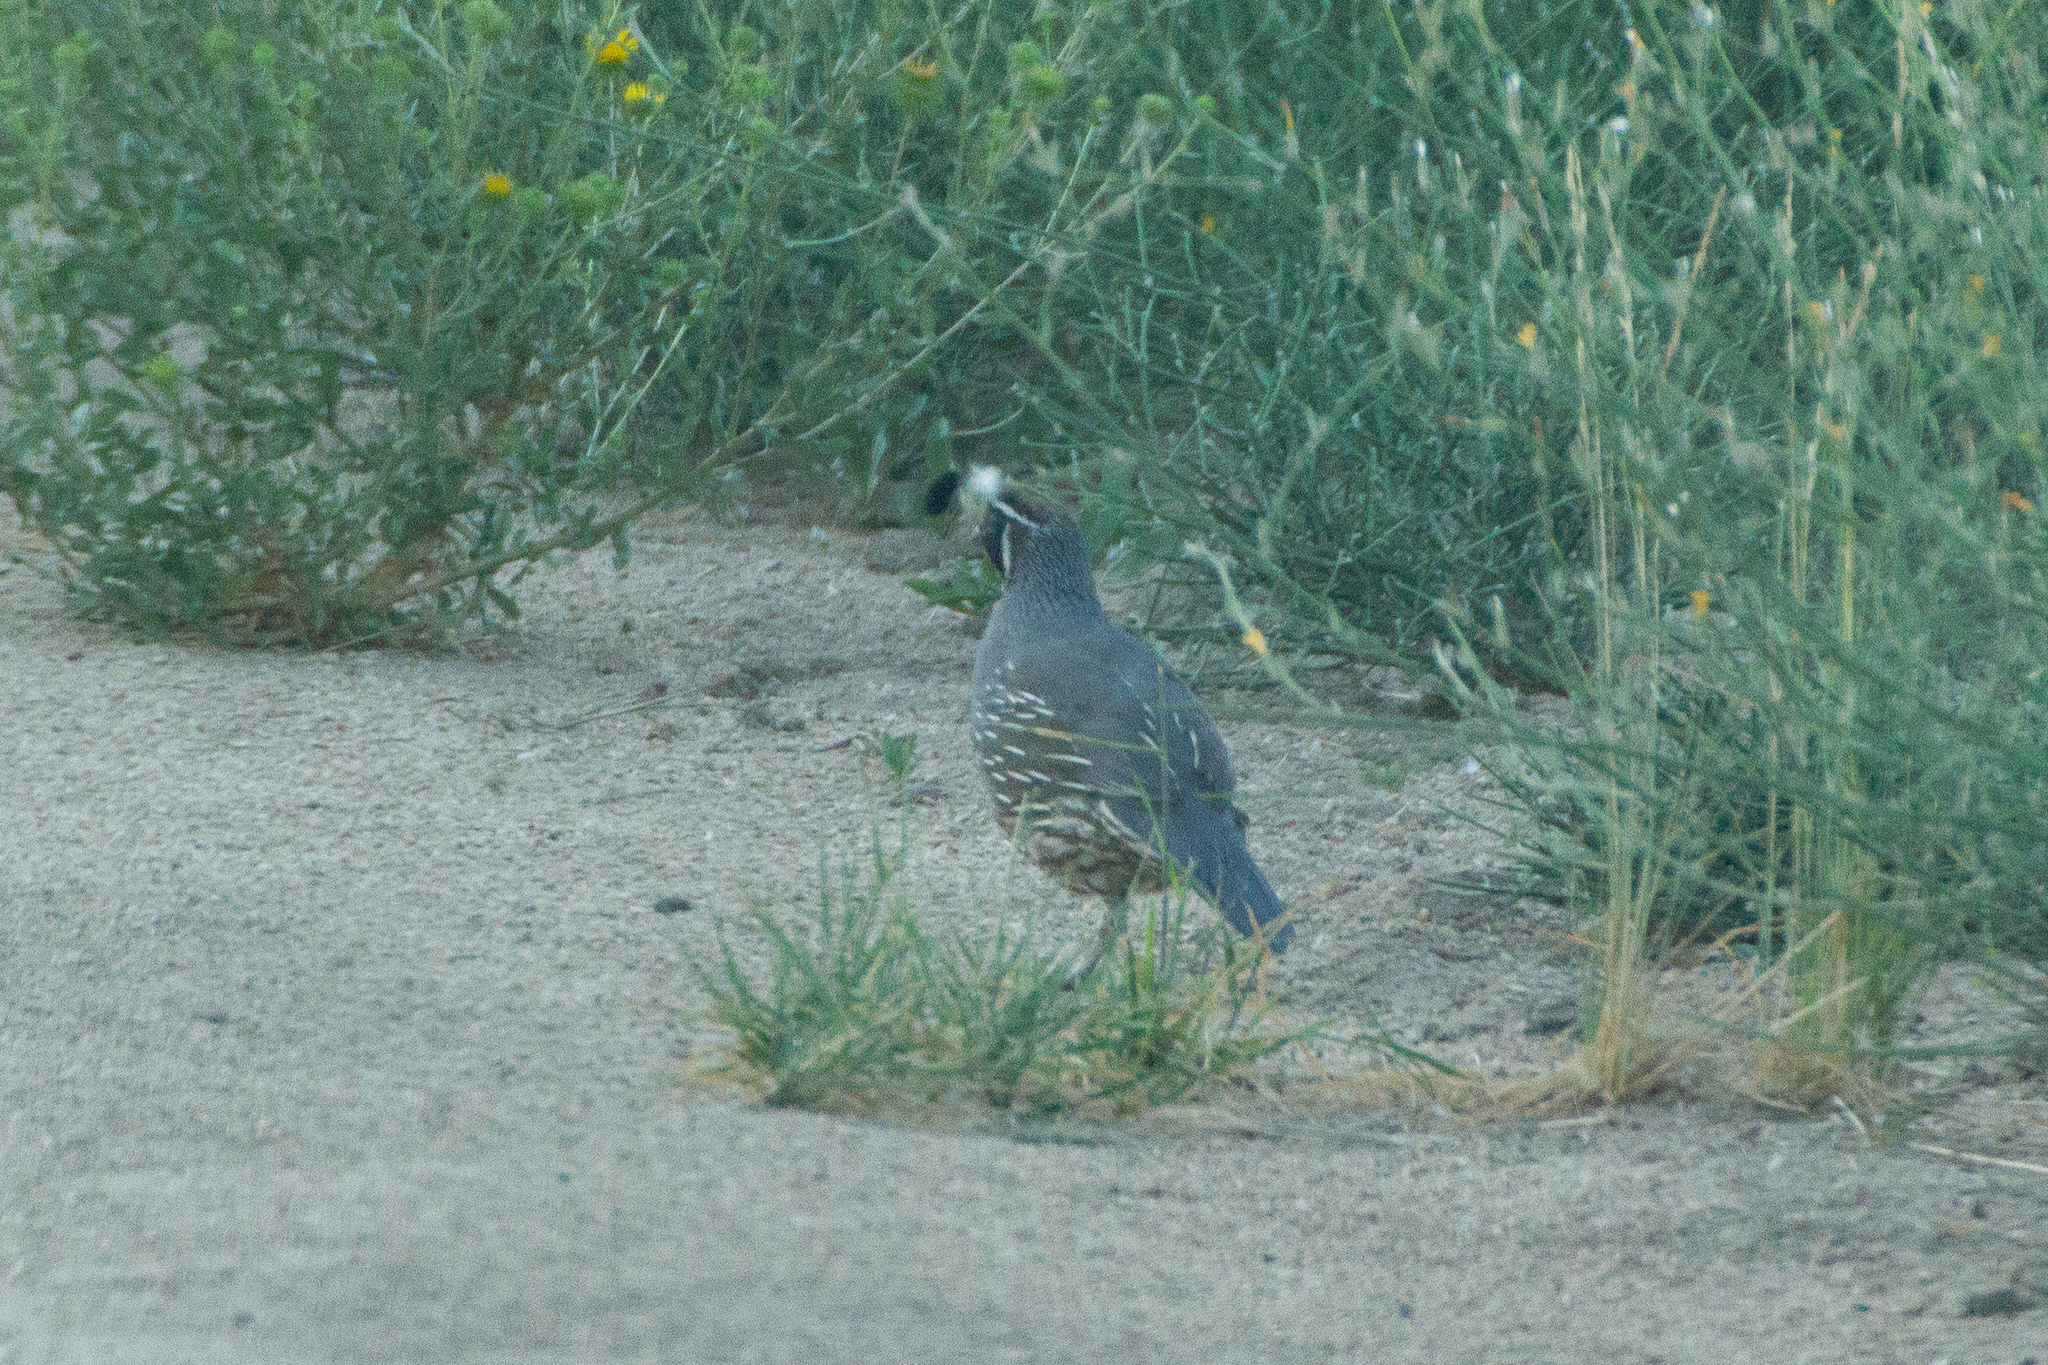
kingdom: Animalia
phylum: Chordata
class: Aves
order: Galliformes
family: Odontophoridae
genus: Callipepla
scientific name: Callipepla californica
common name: California quail
